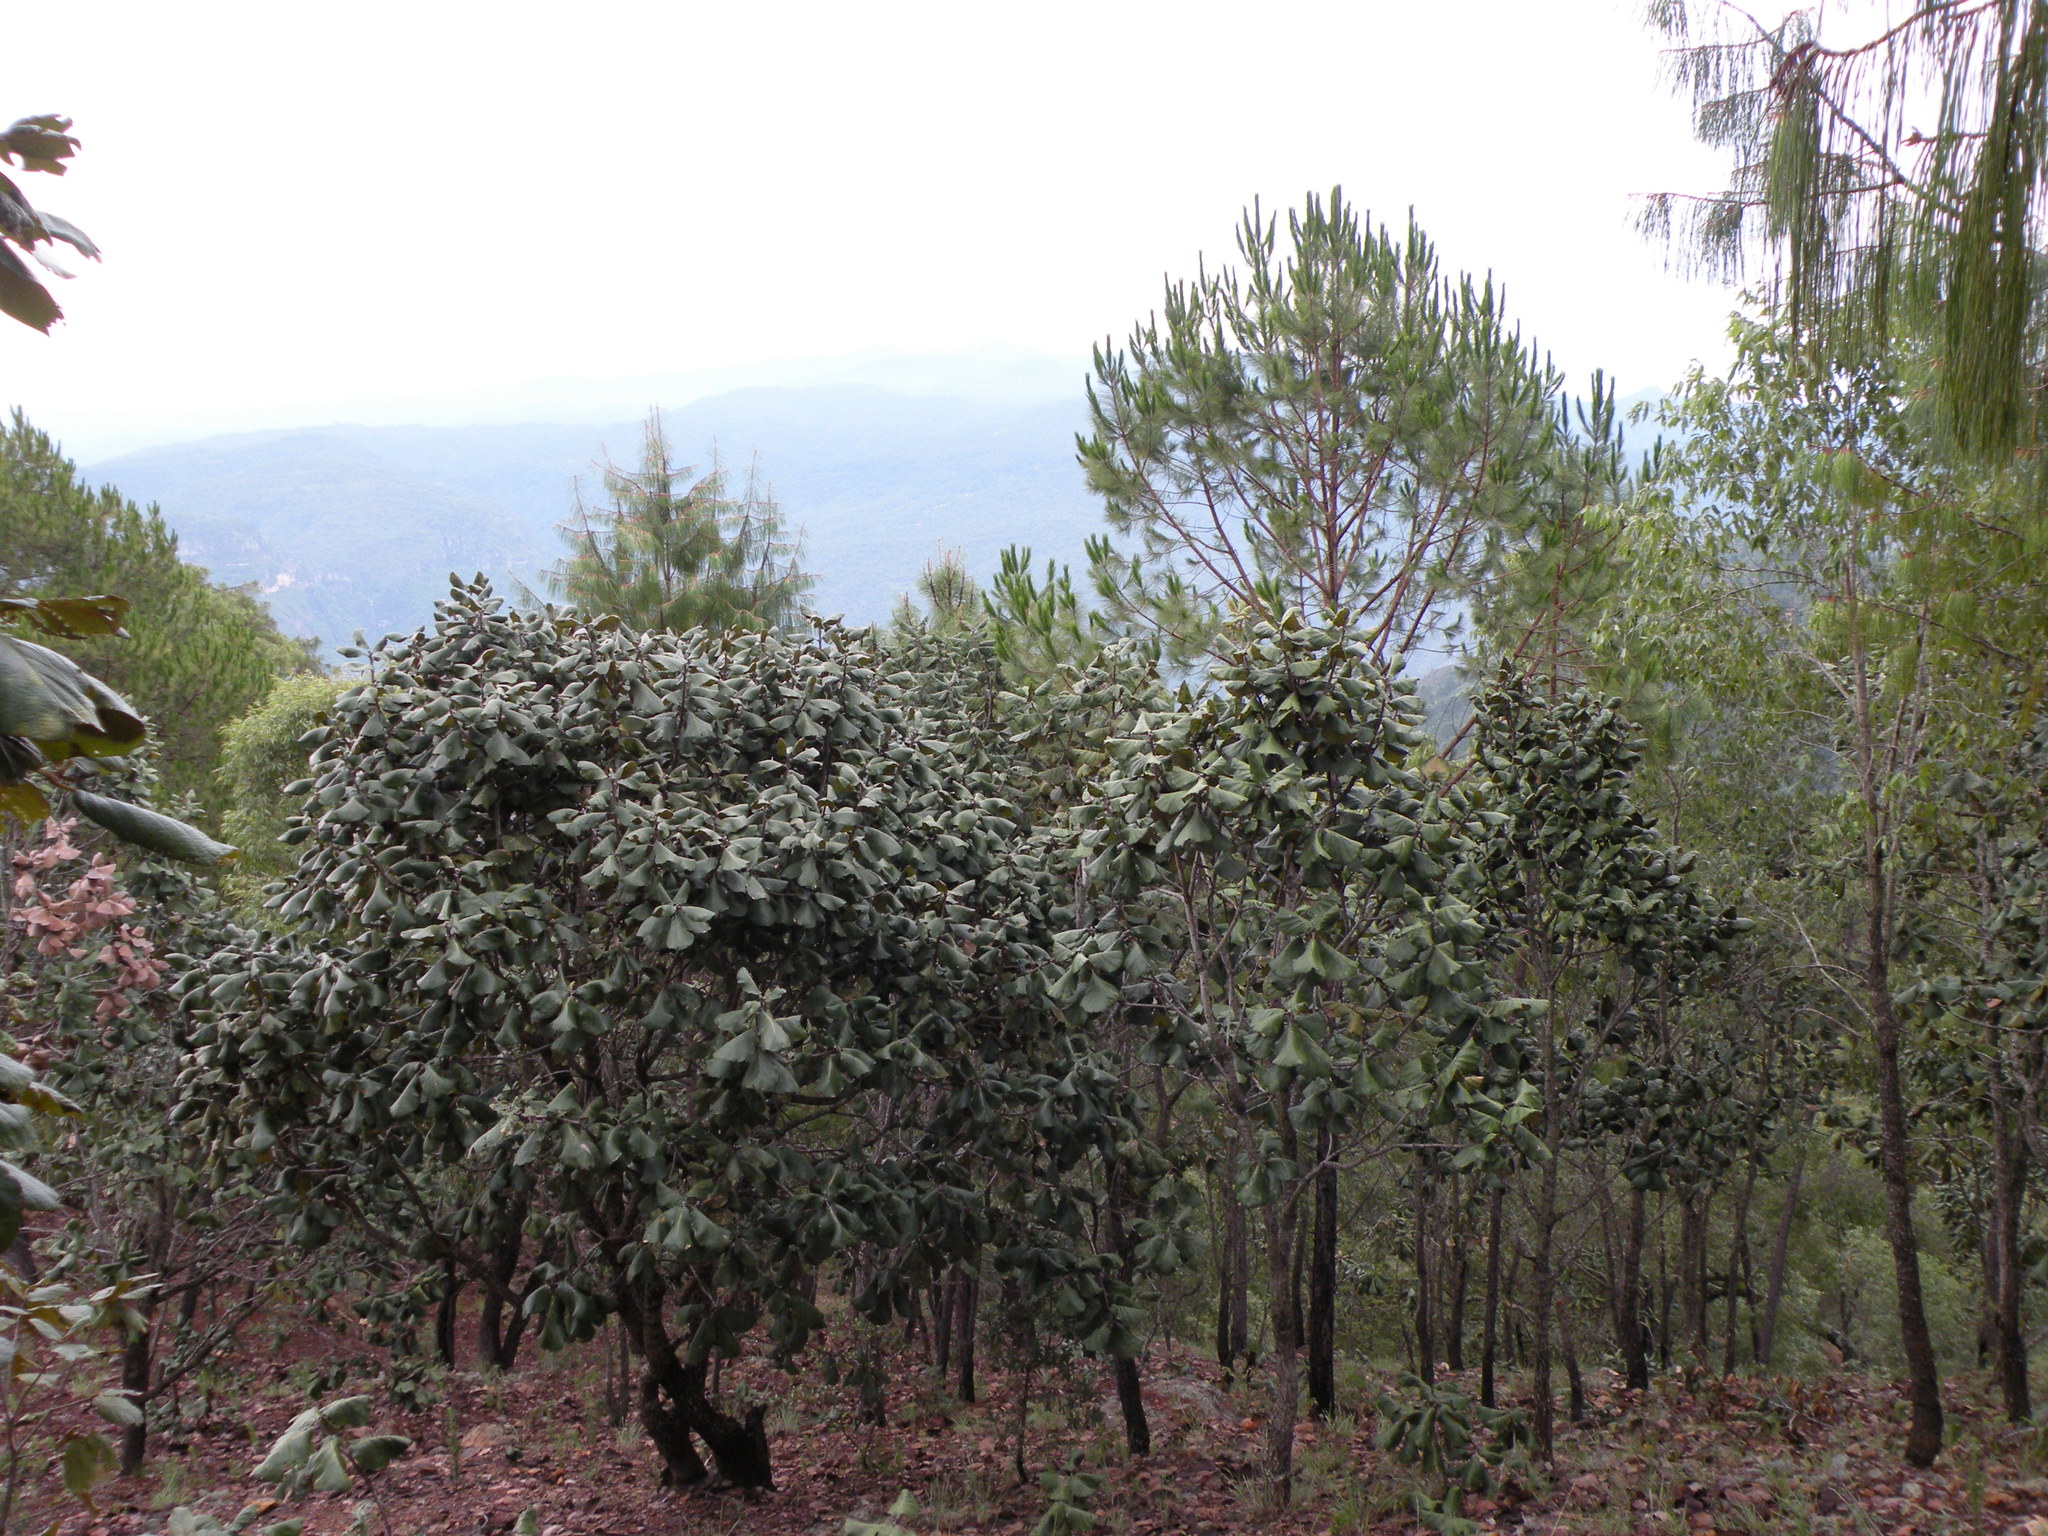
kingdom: Plantae
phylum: Tracheophyta
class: Magnoliopsida
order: Fagales
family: Fagaceae
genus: Quercus
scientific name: Quercus urbani
